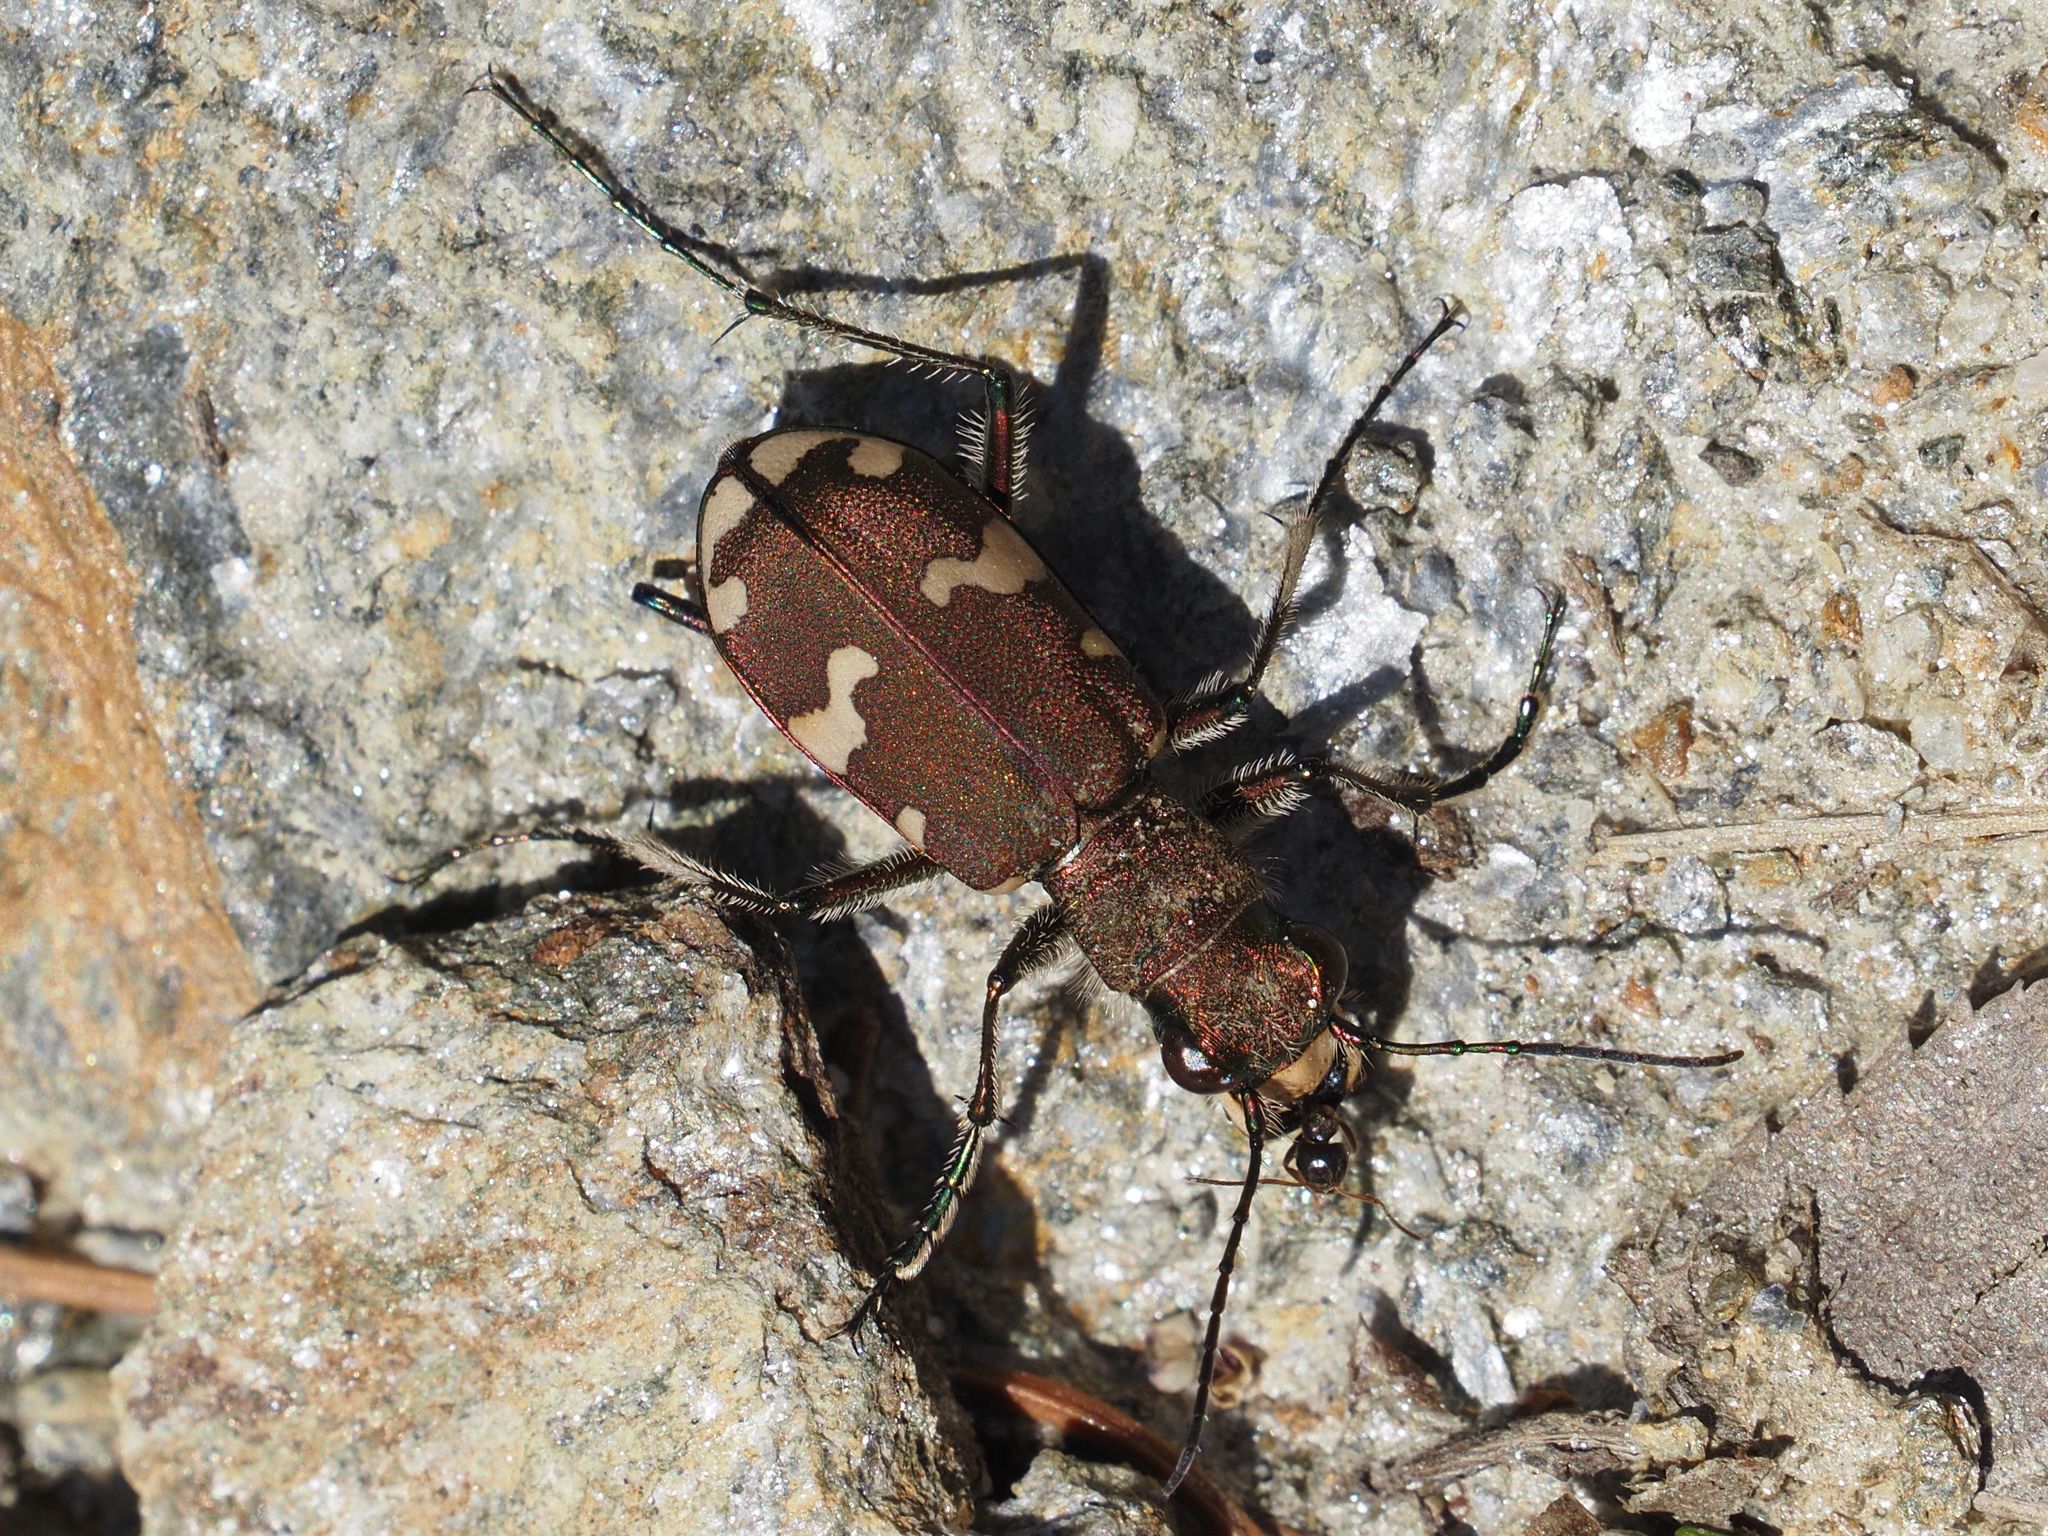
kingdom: Animalia
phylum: Arthropoda
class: Insecta
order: Coleoptera
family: Carabidae
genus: Cicindela
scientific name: Cicindela sylvicola
